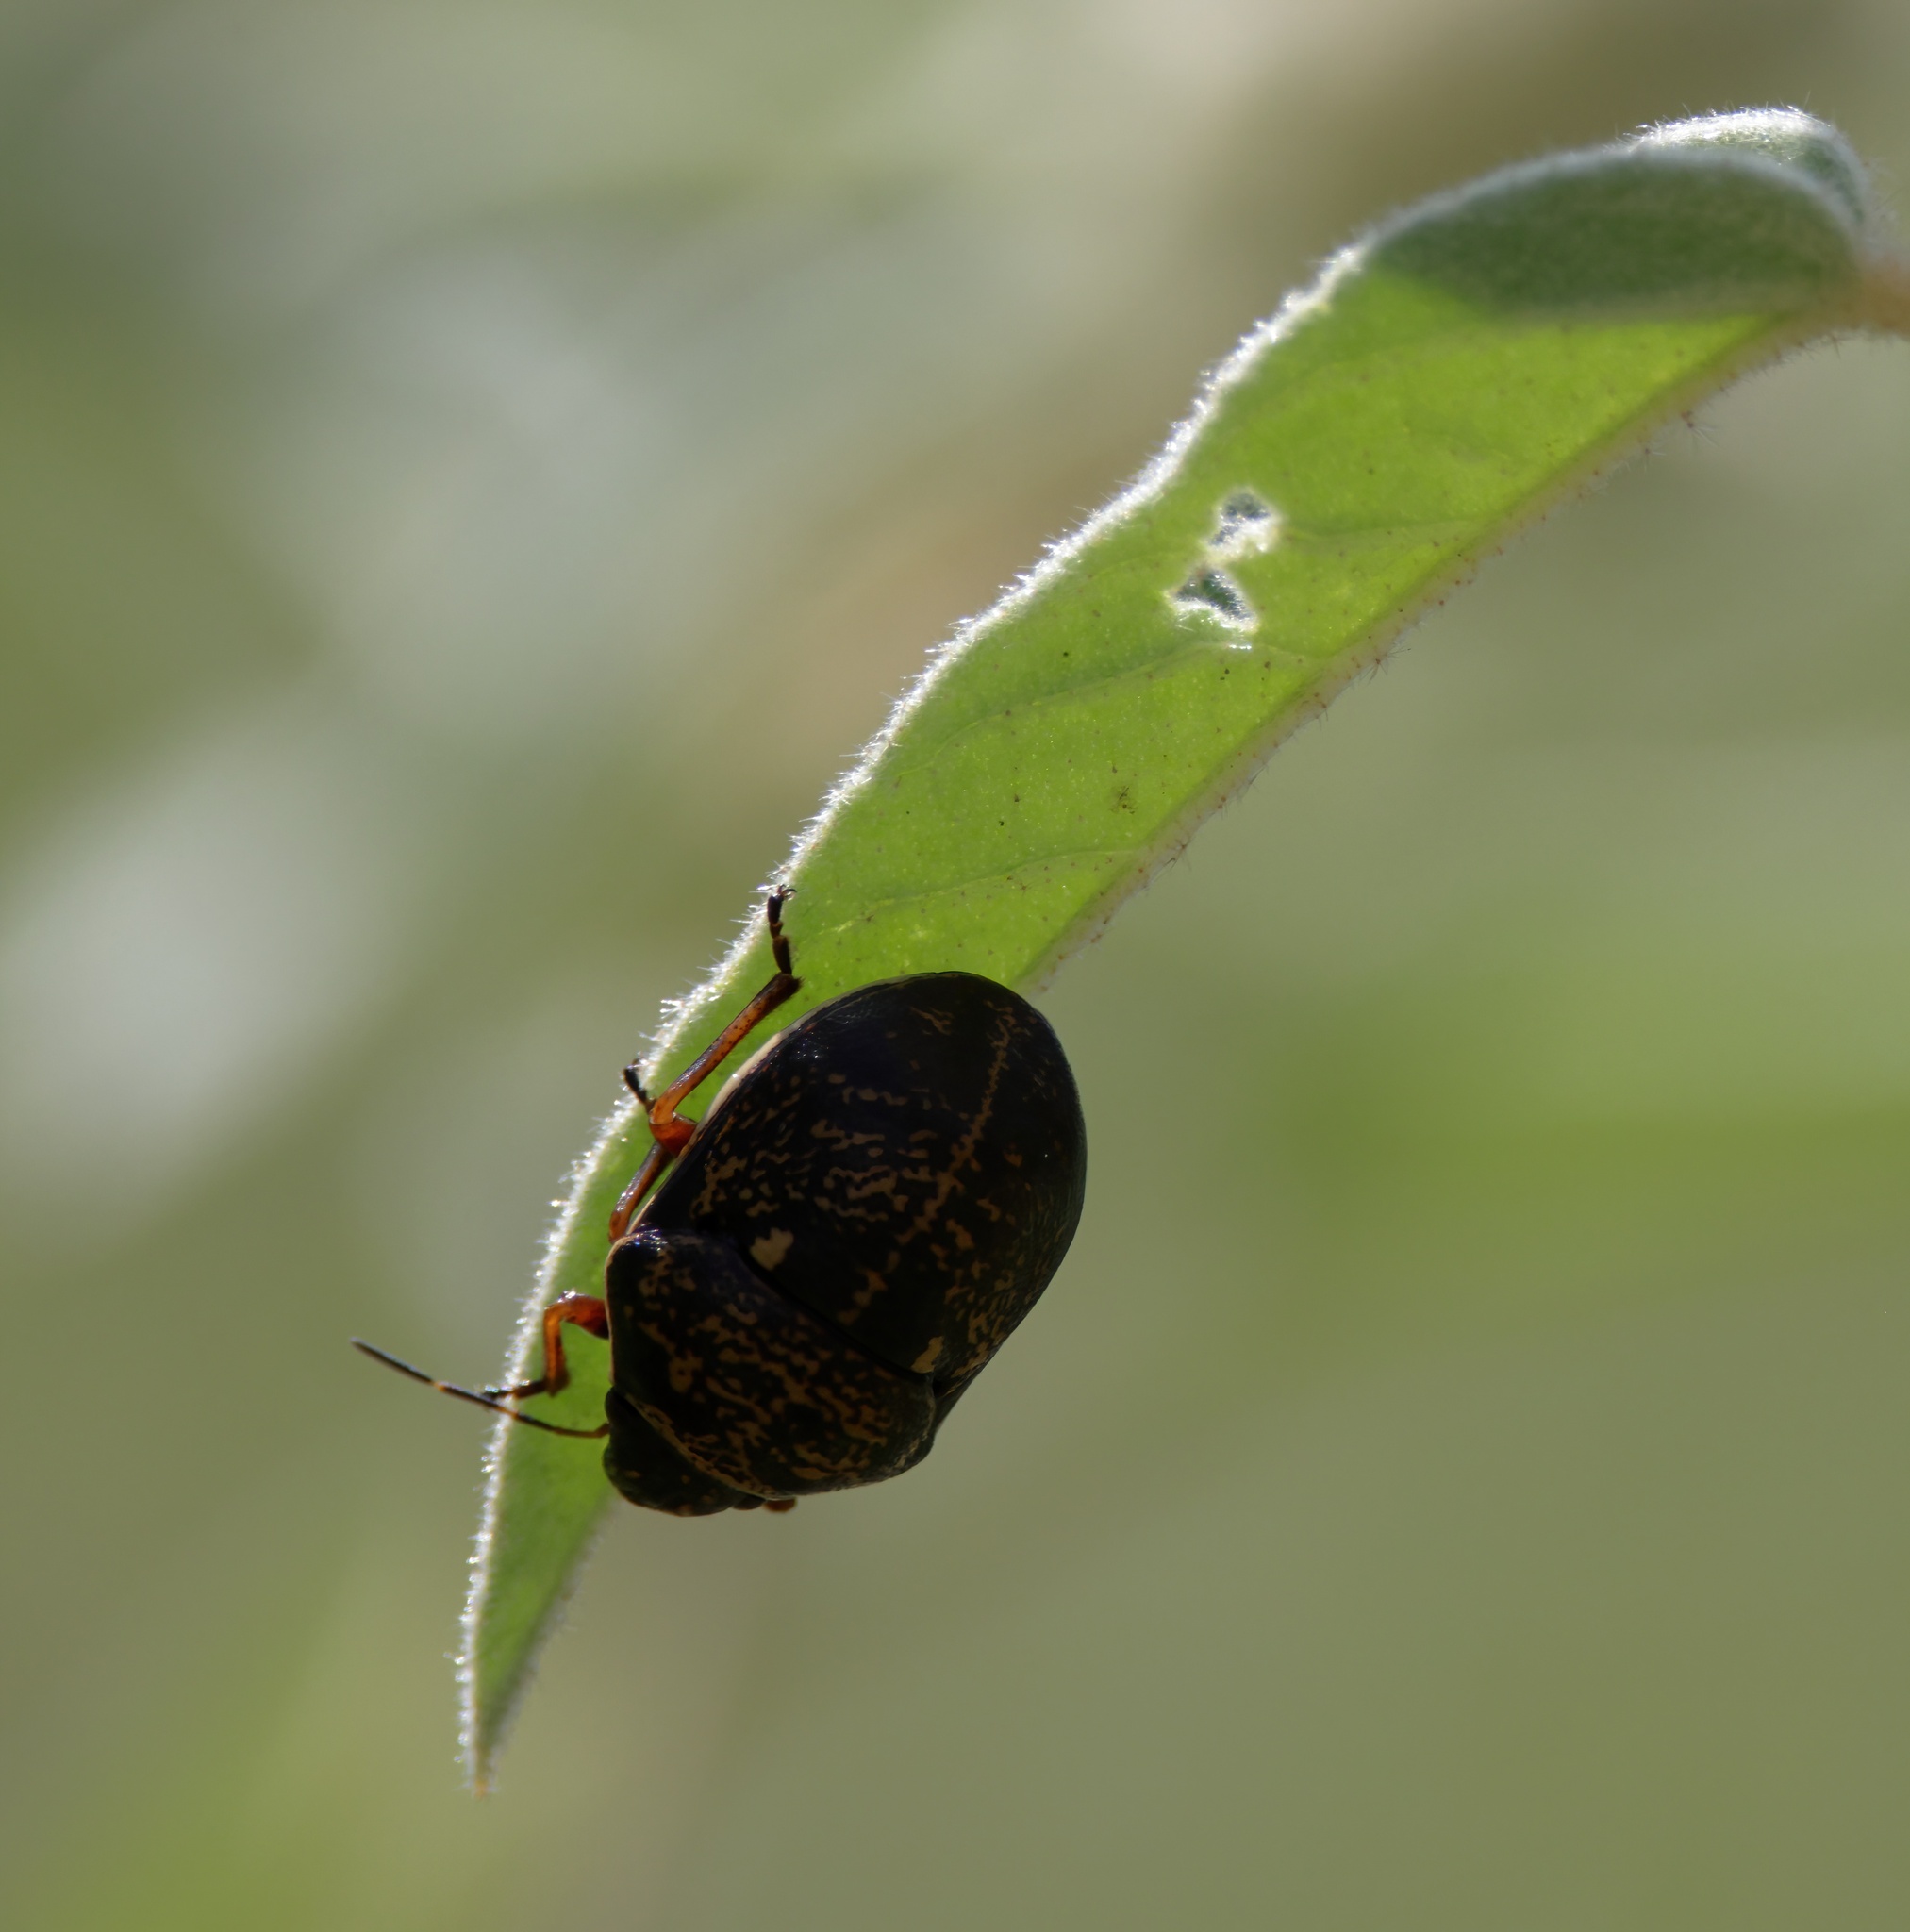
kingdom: Animalia
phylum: Arthropoda
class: Insecta
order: Hemiptera
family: Scutelleridae
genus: Orsilochides
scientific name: Orsilochides guttata
